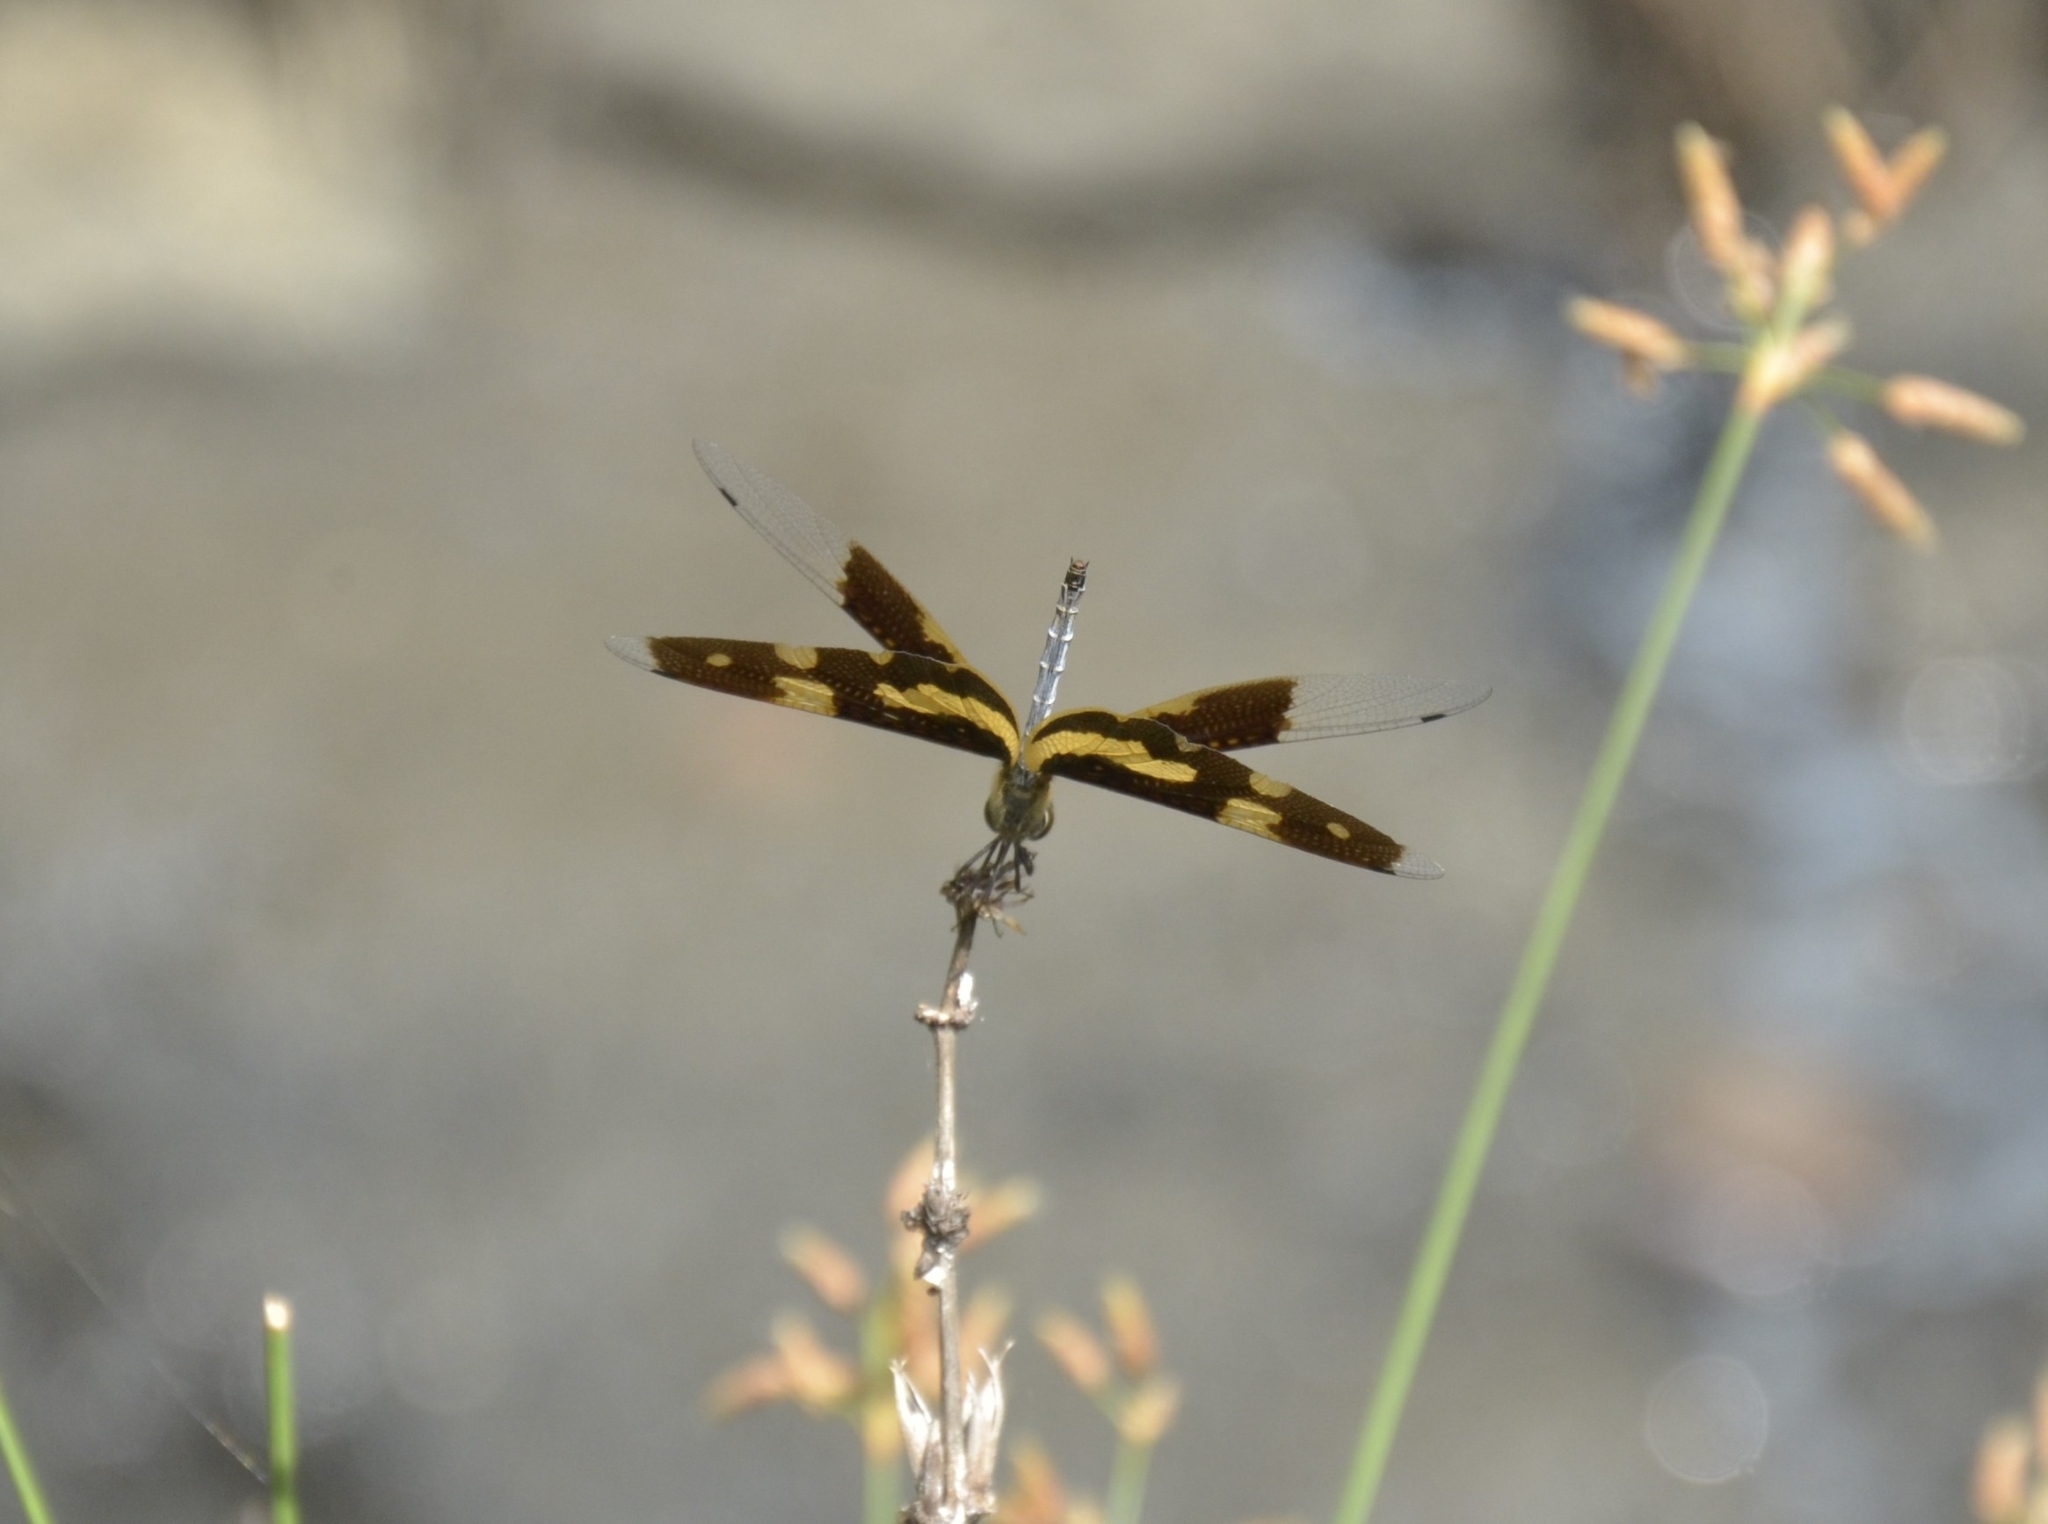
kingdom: Animalia
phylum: Arthropoda
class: Insecta
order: Odonata
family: Libellulidae
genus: Rhyothemis
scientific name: Rhyothemis variegata
